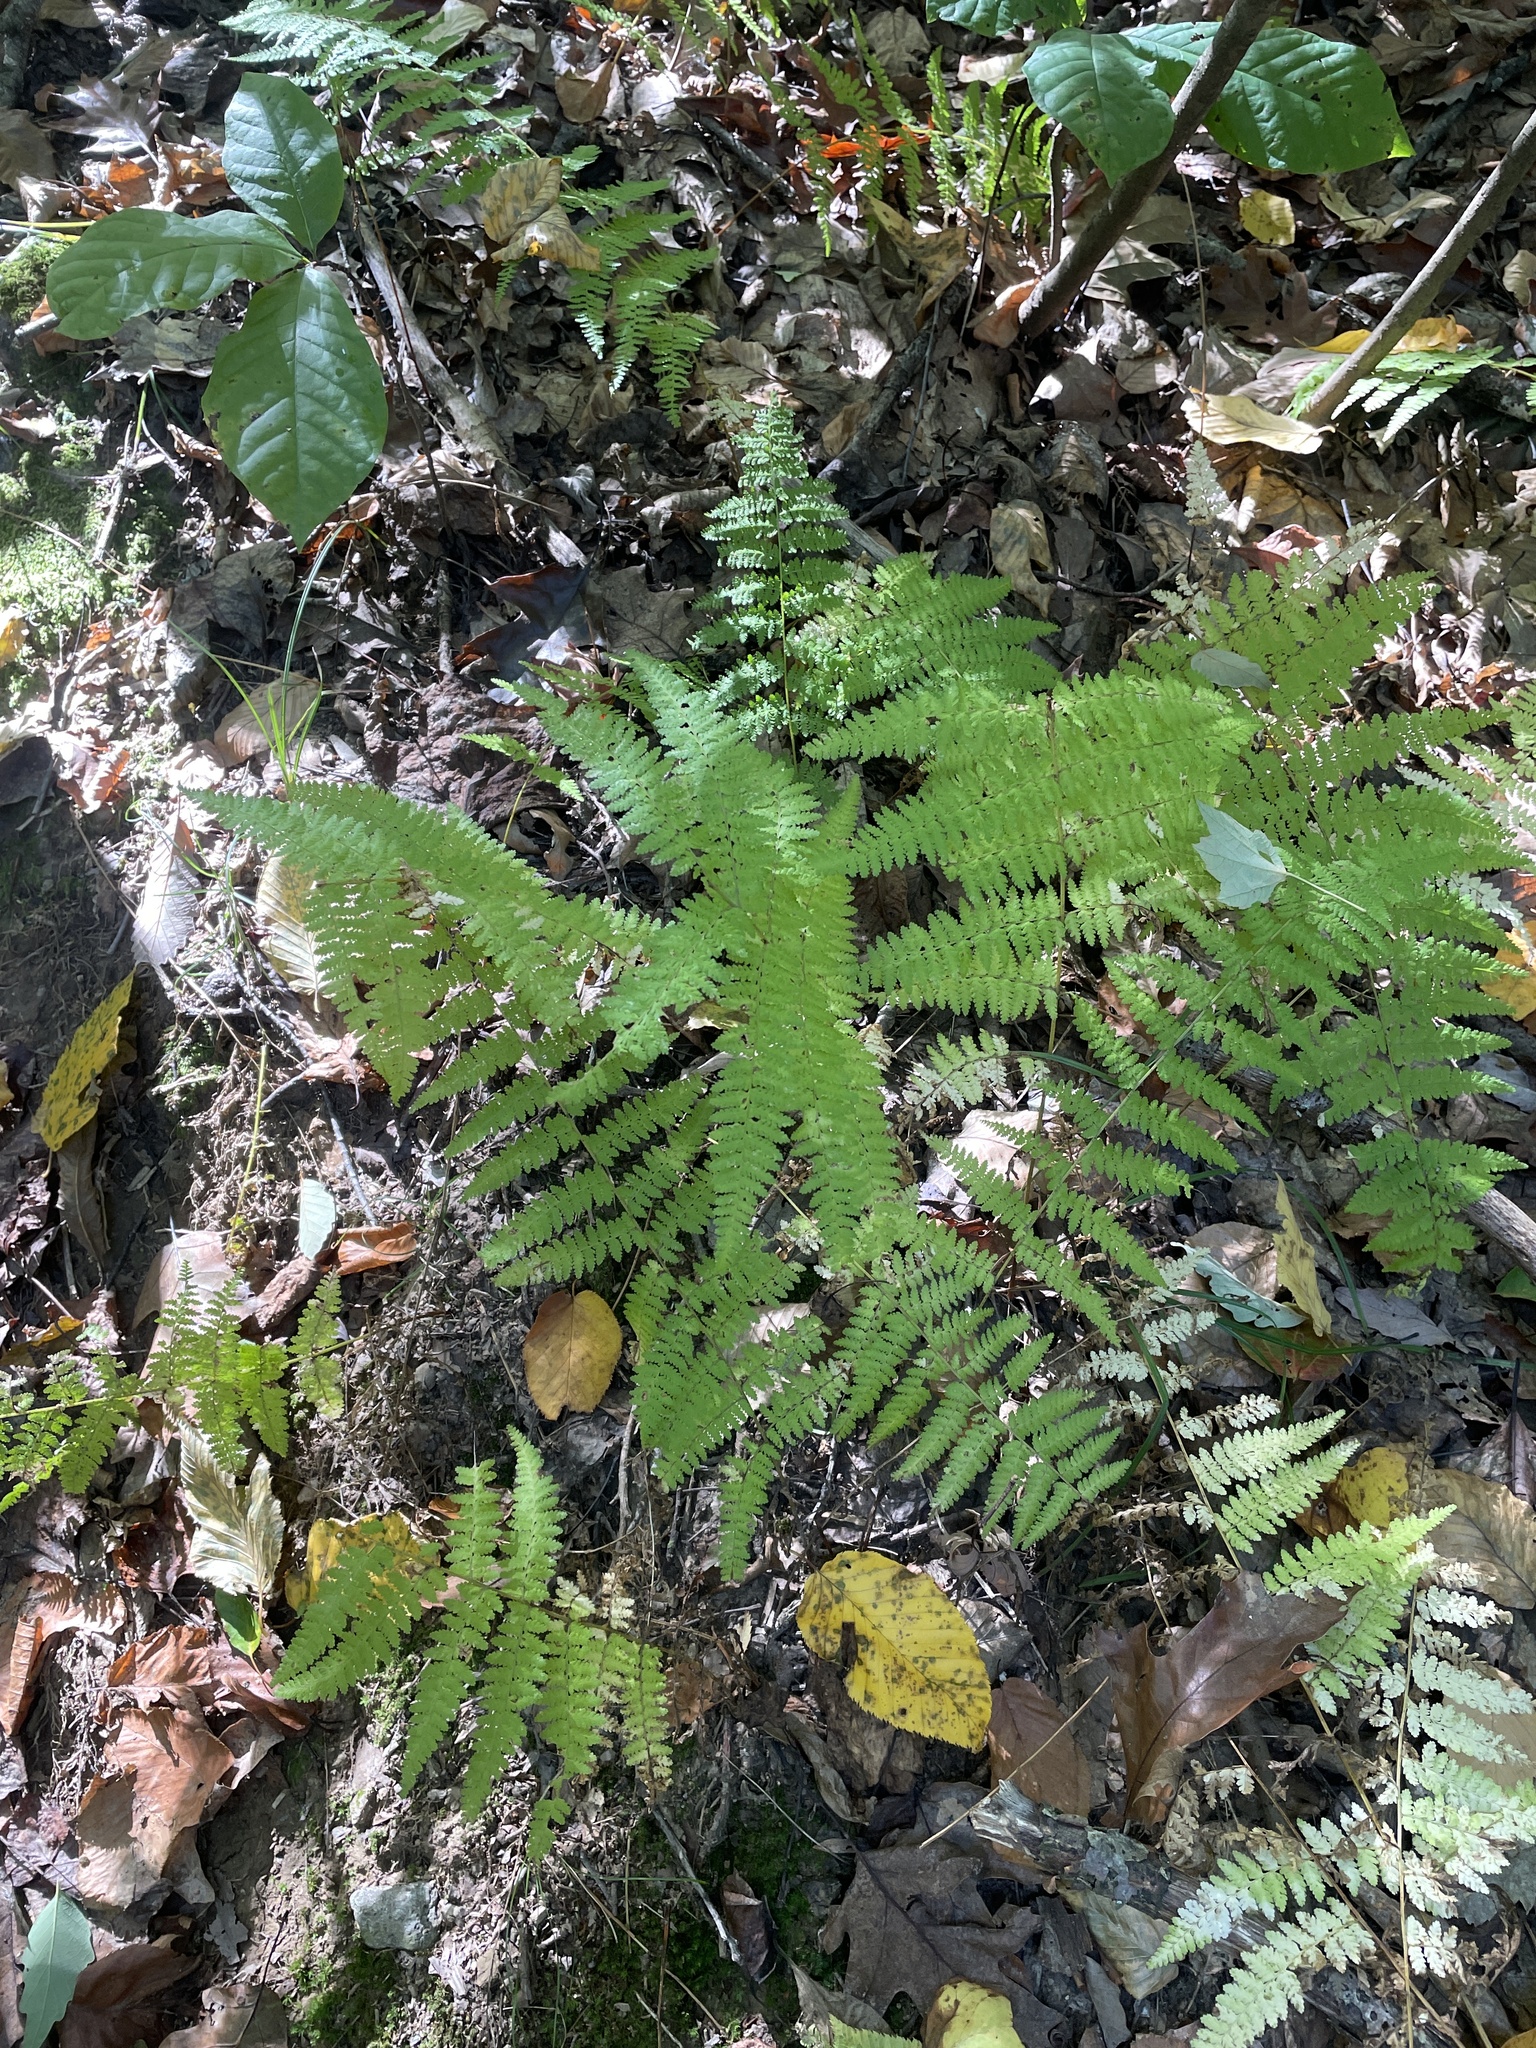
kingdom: Plantae
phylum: Tracheophyta
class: Polypodiopsida
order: Polypodiales
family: Dennstaedtiaceae
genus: Sitobolium
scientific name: Sitobolium punctilobum
